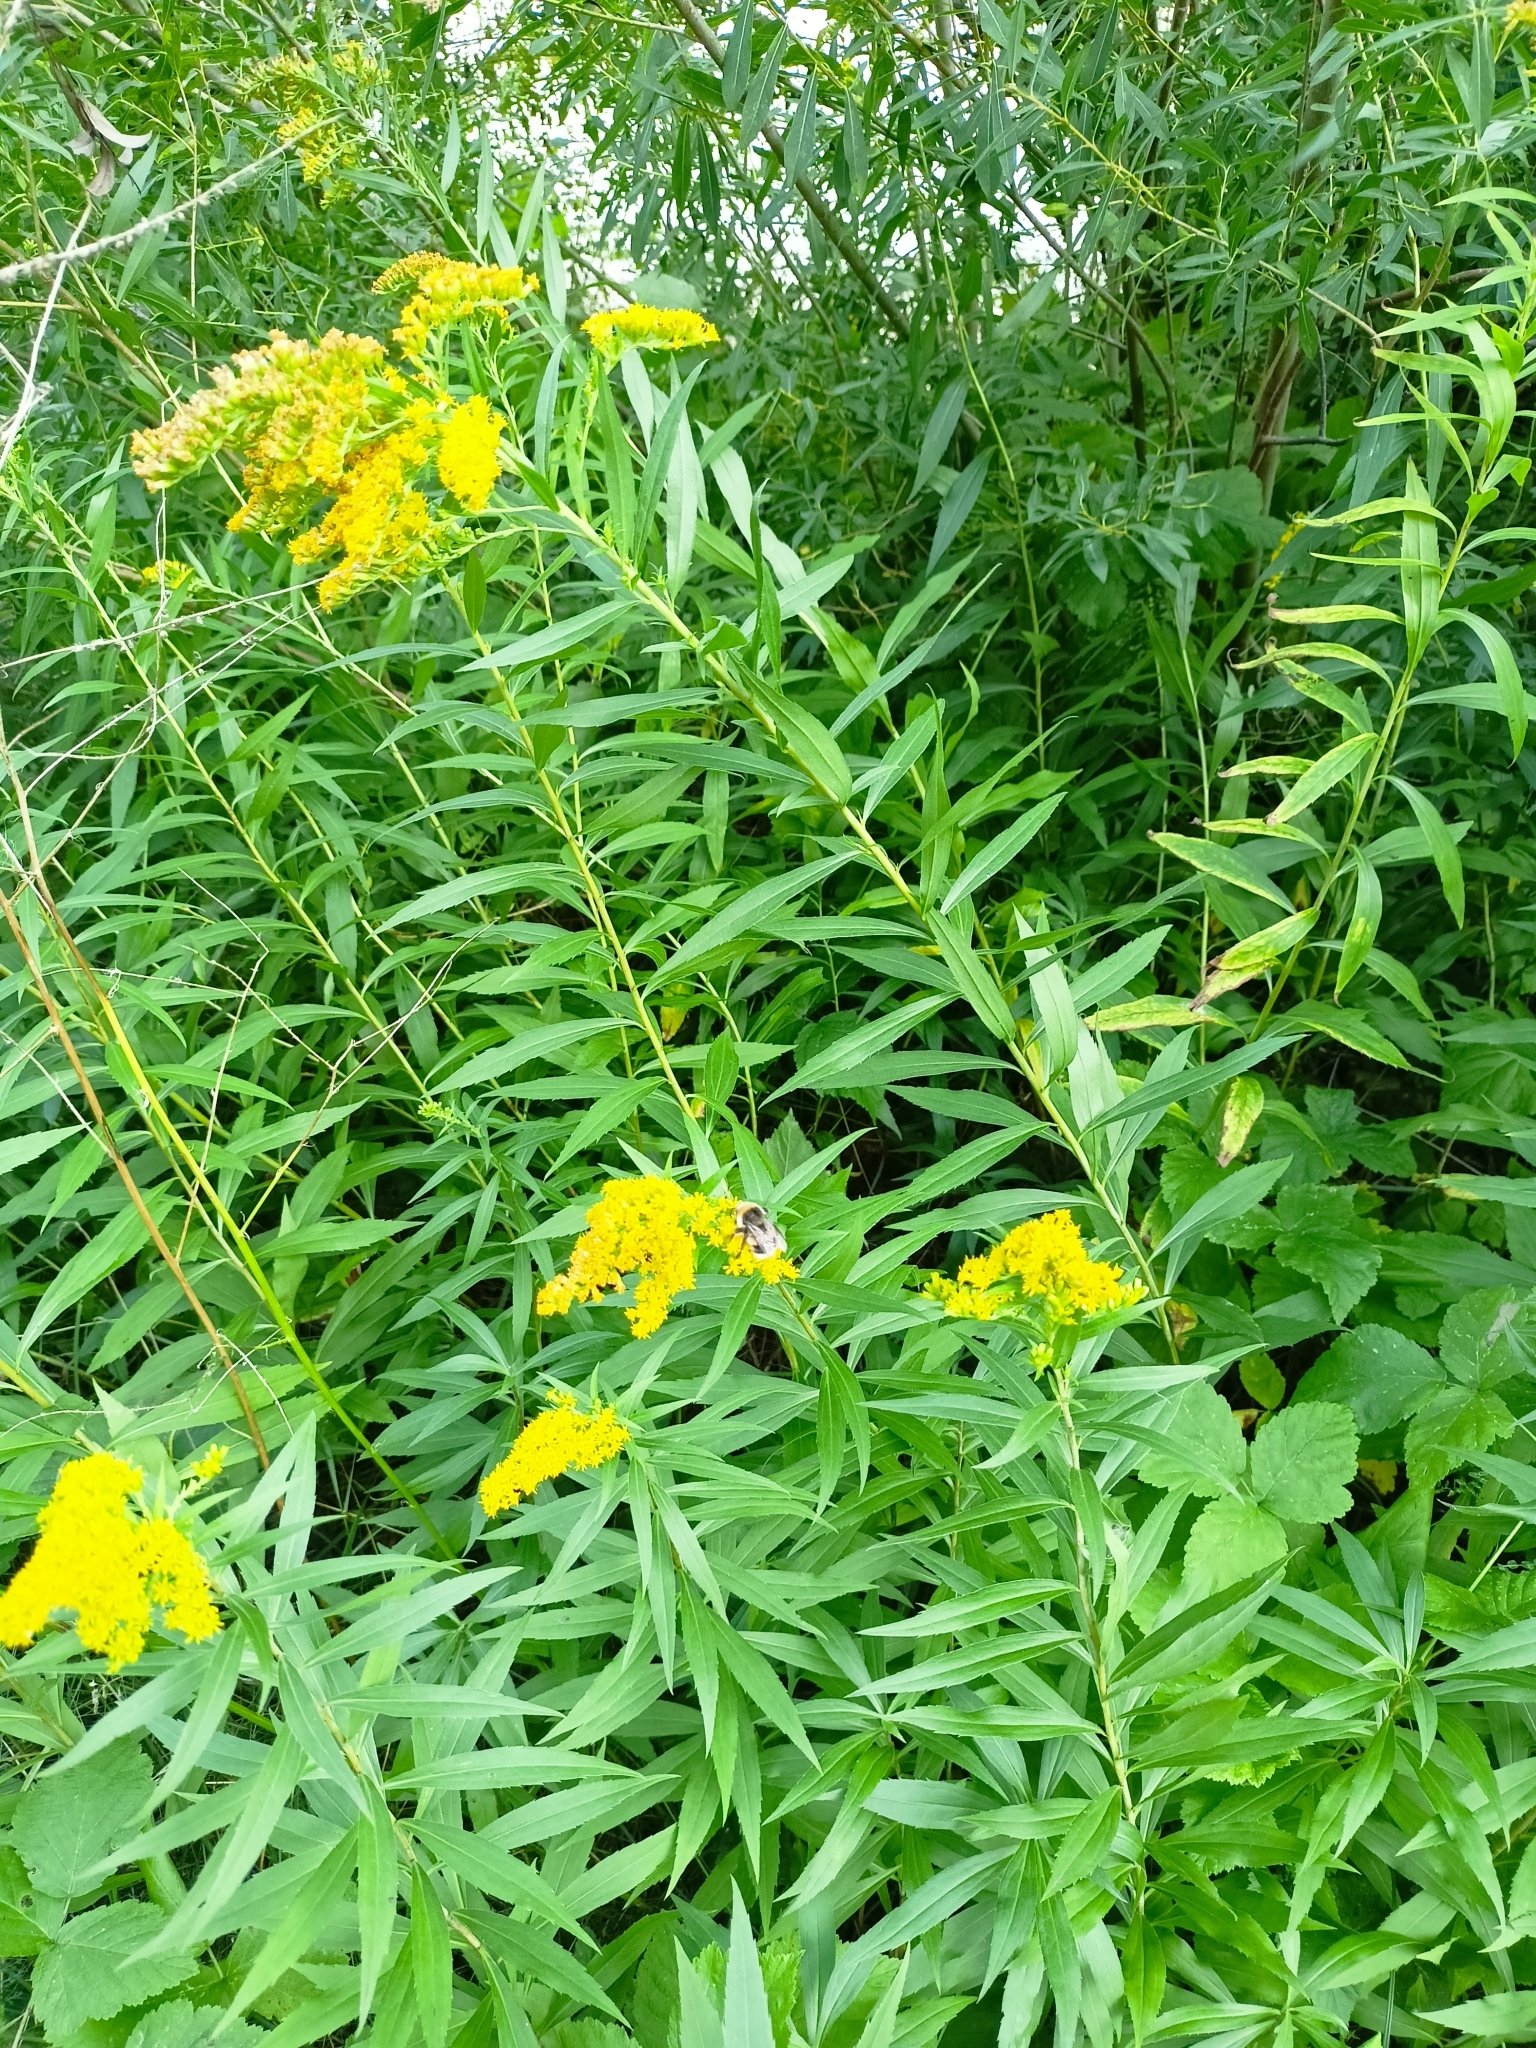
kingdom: Plantae
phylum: Tracheophyta
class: Magnoliopsida
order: Asterales
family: Asteraceae
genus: Solidago
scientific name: Solidago gigantea
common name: Giant goldenrod
